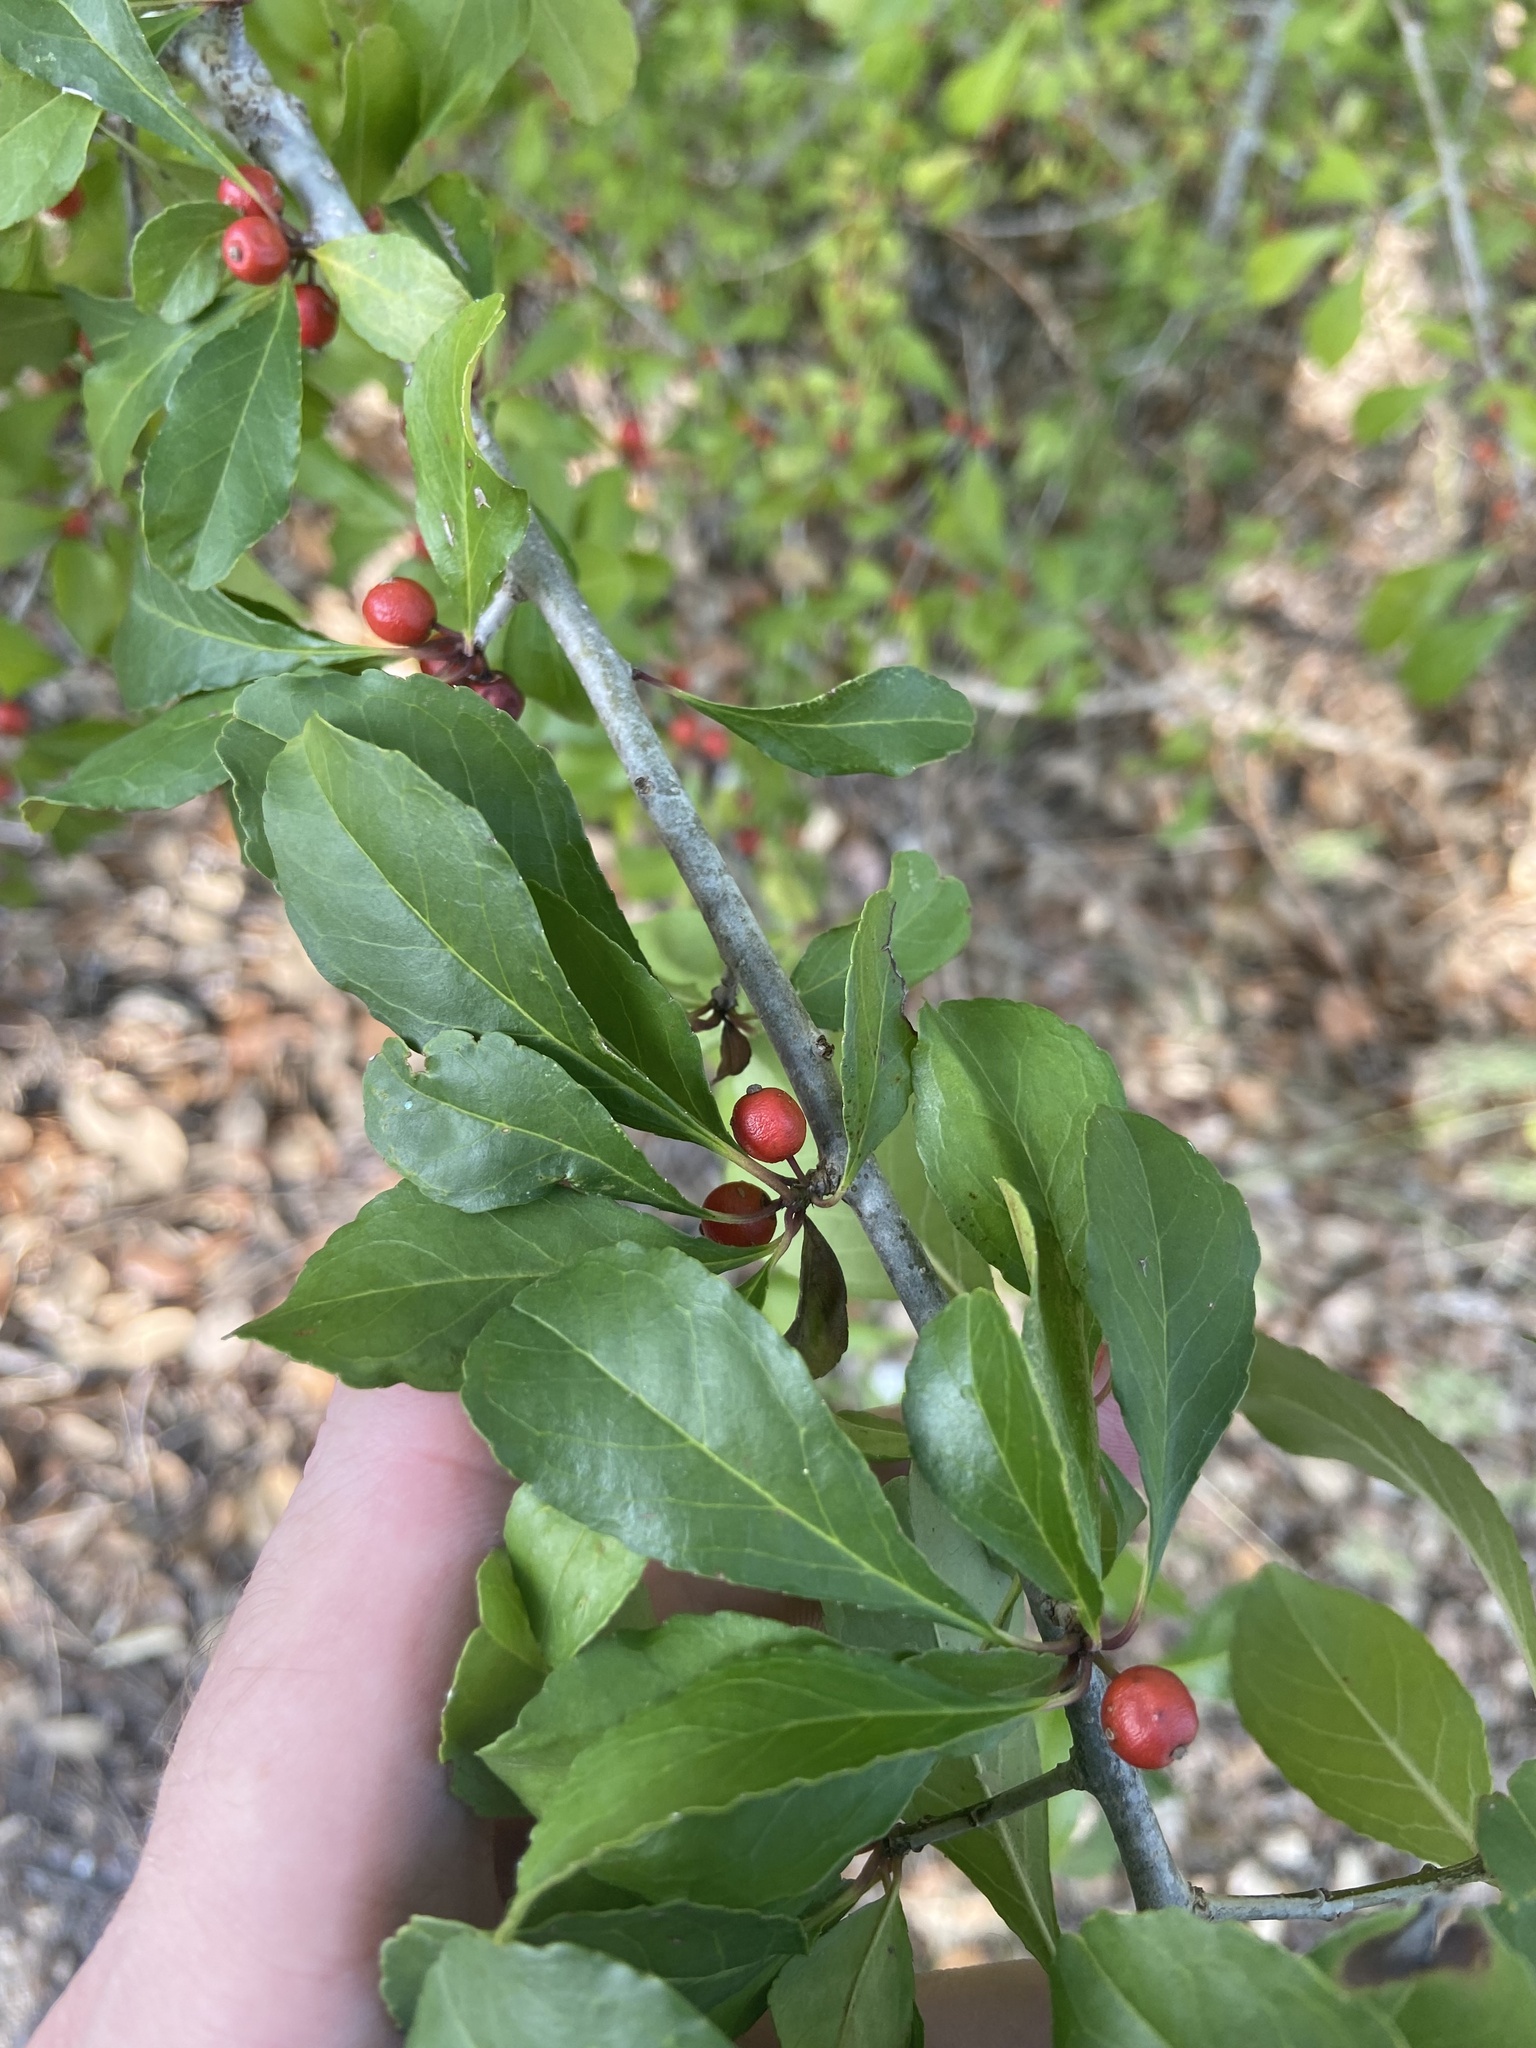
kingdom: Plantae
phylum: Tracheophyta
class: Magnoliopsida
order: Aquifoliales
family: Aquifoliaceae
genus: Ilex
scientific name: Ilex decidua
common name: Possum-haw
